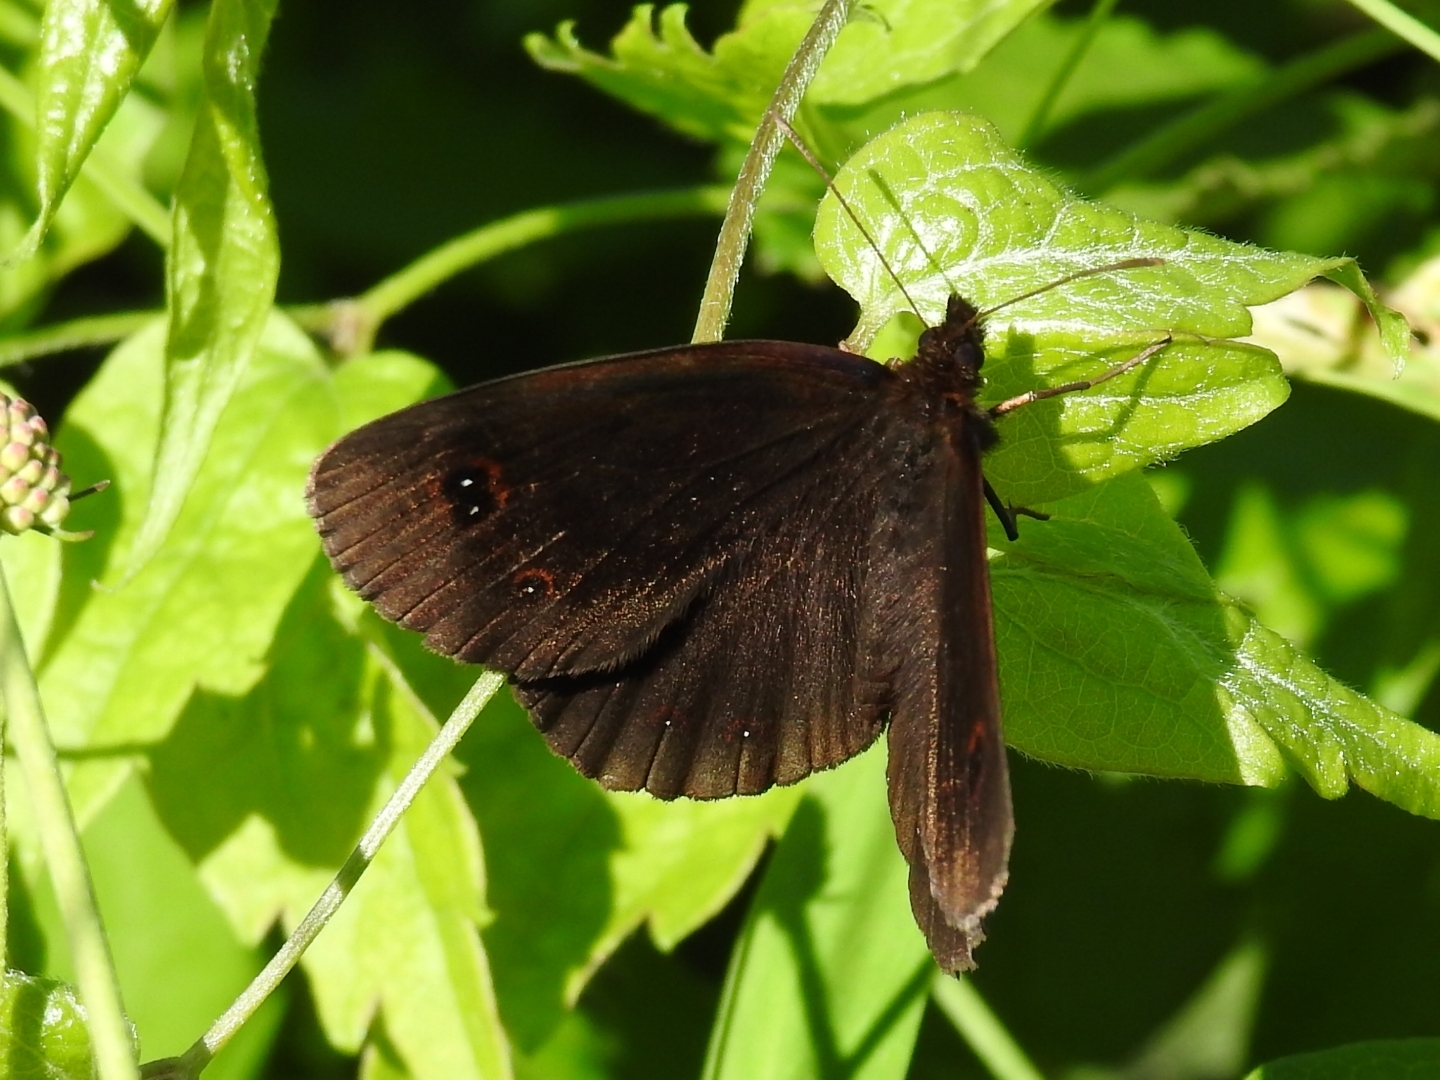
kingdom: Animalia
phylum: Arthropoda
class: Insecta
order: Lepidoptera
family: Nymphalidae
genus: Erebia
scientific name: Erebia aethiops
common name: Scotch argus
